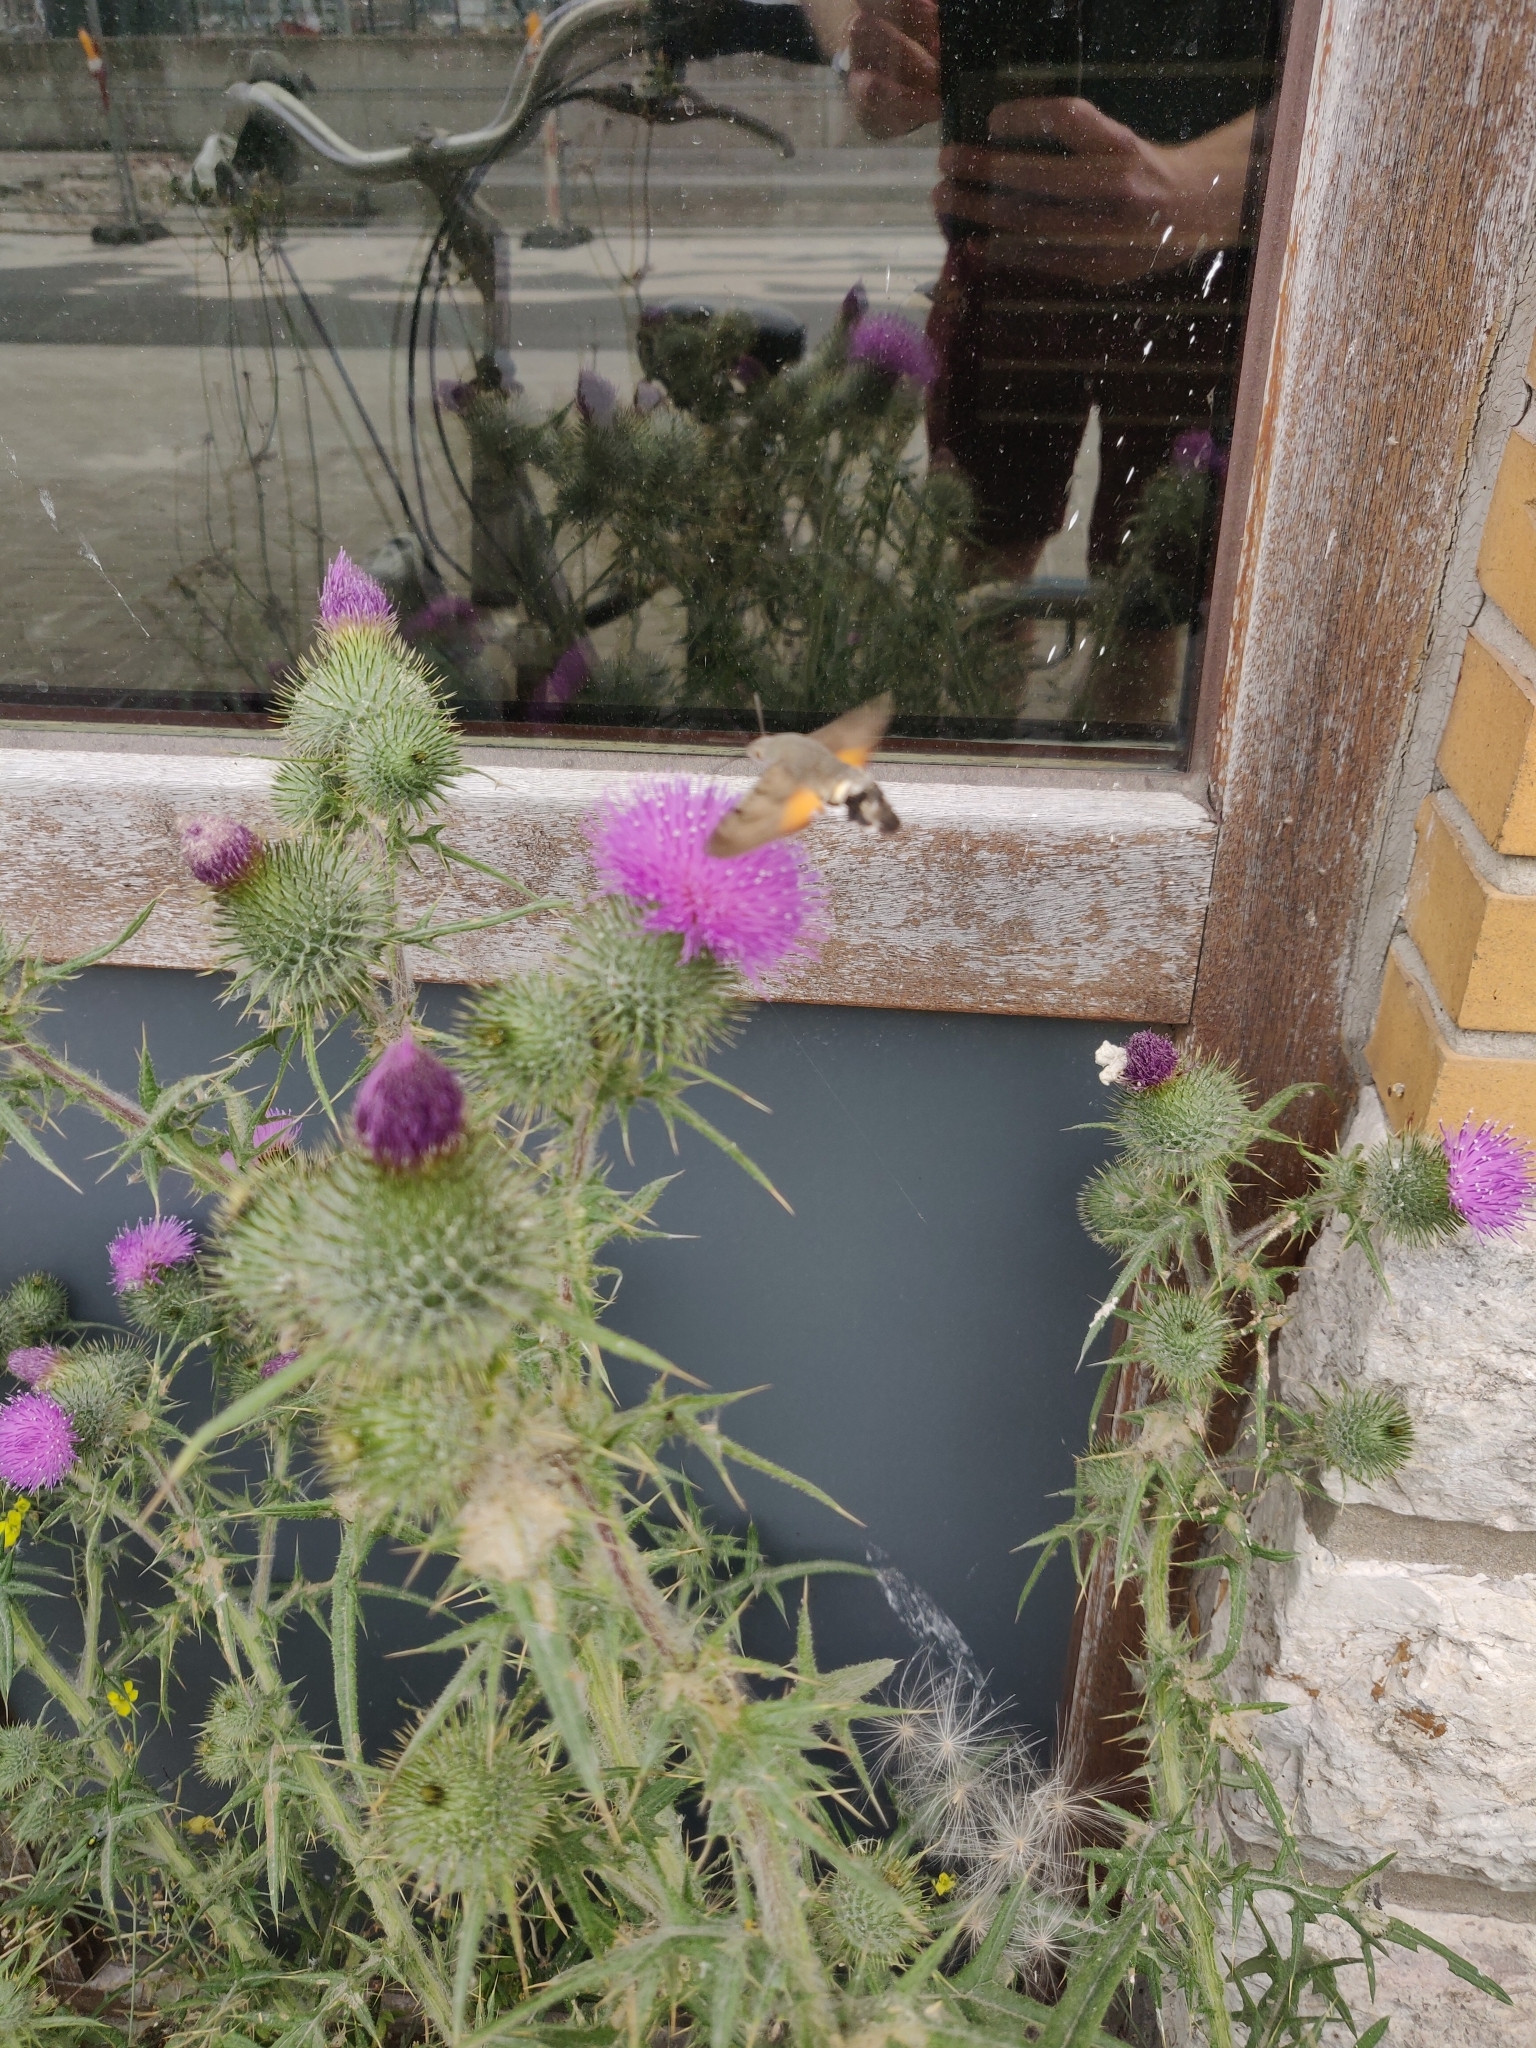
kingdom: Animalia
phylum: Arthropoda
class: Insecta
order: Lepidoptera
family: Sphingidae
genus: Macroglossum
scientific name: Macroglossum stellatarum
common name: Humming-bird hawk-moth
